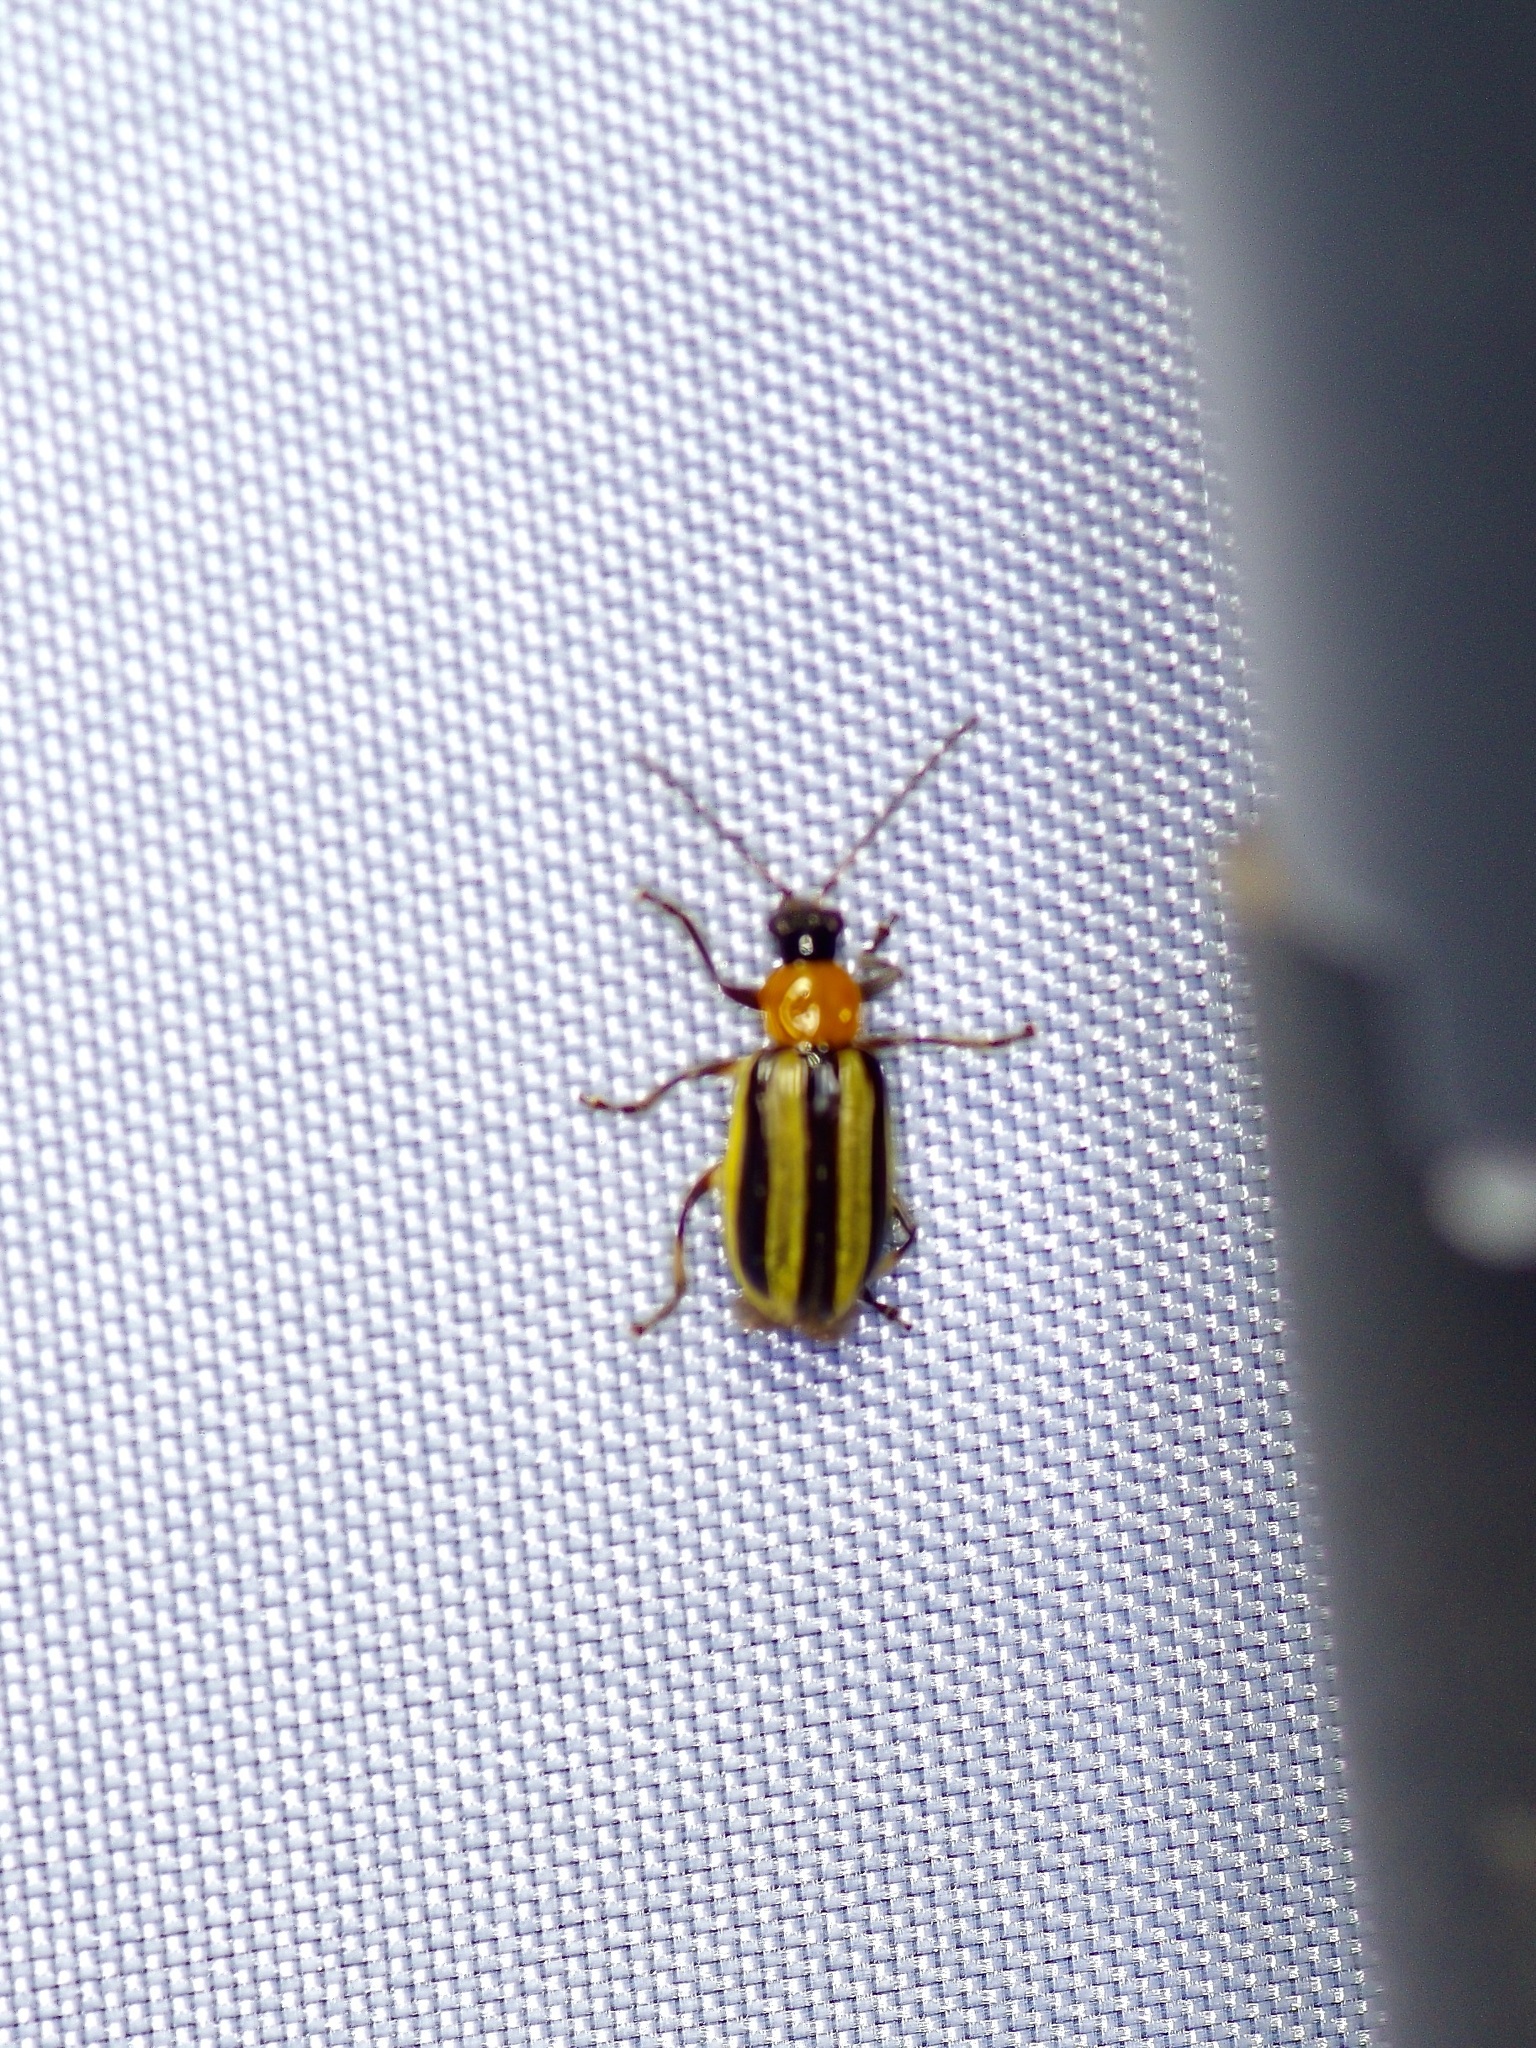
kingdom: Animalia
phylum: Arthropoda
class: Insecta
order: Coleoptera
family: Chrysomelidae
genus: Acalymma
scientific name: Acalymma vittatum
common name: Striped cucumber beetle
